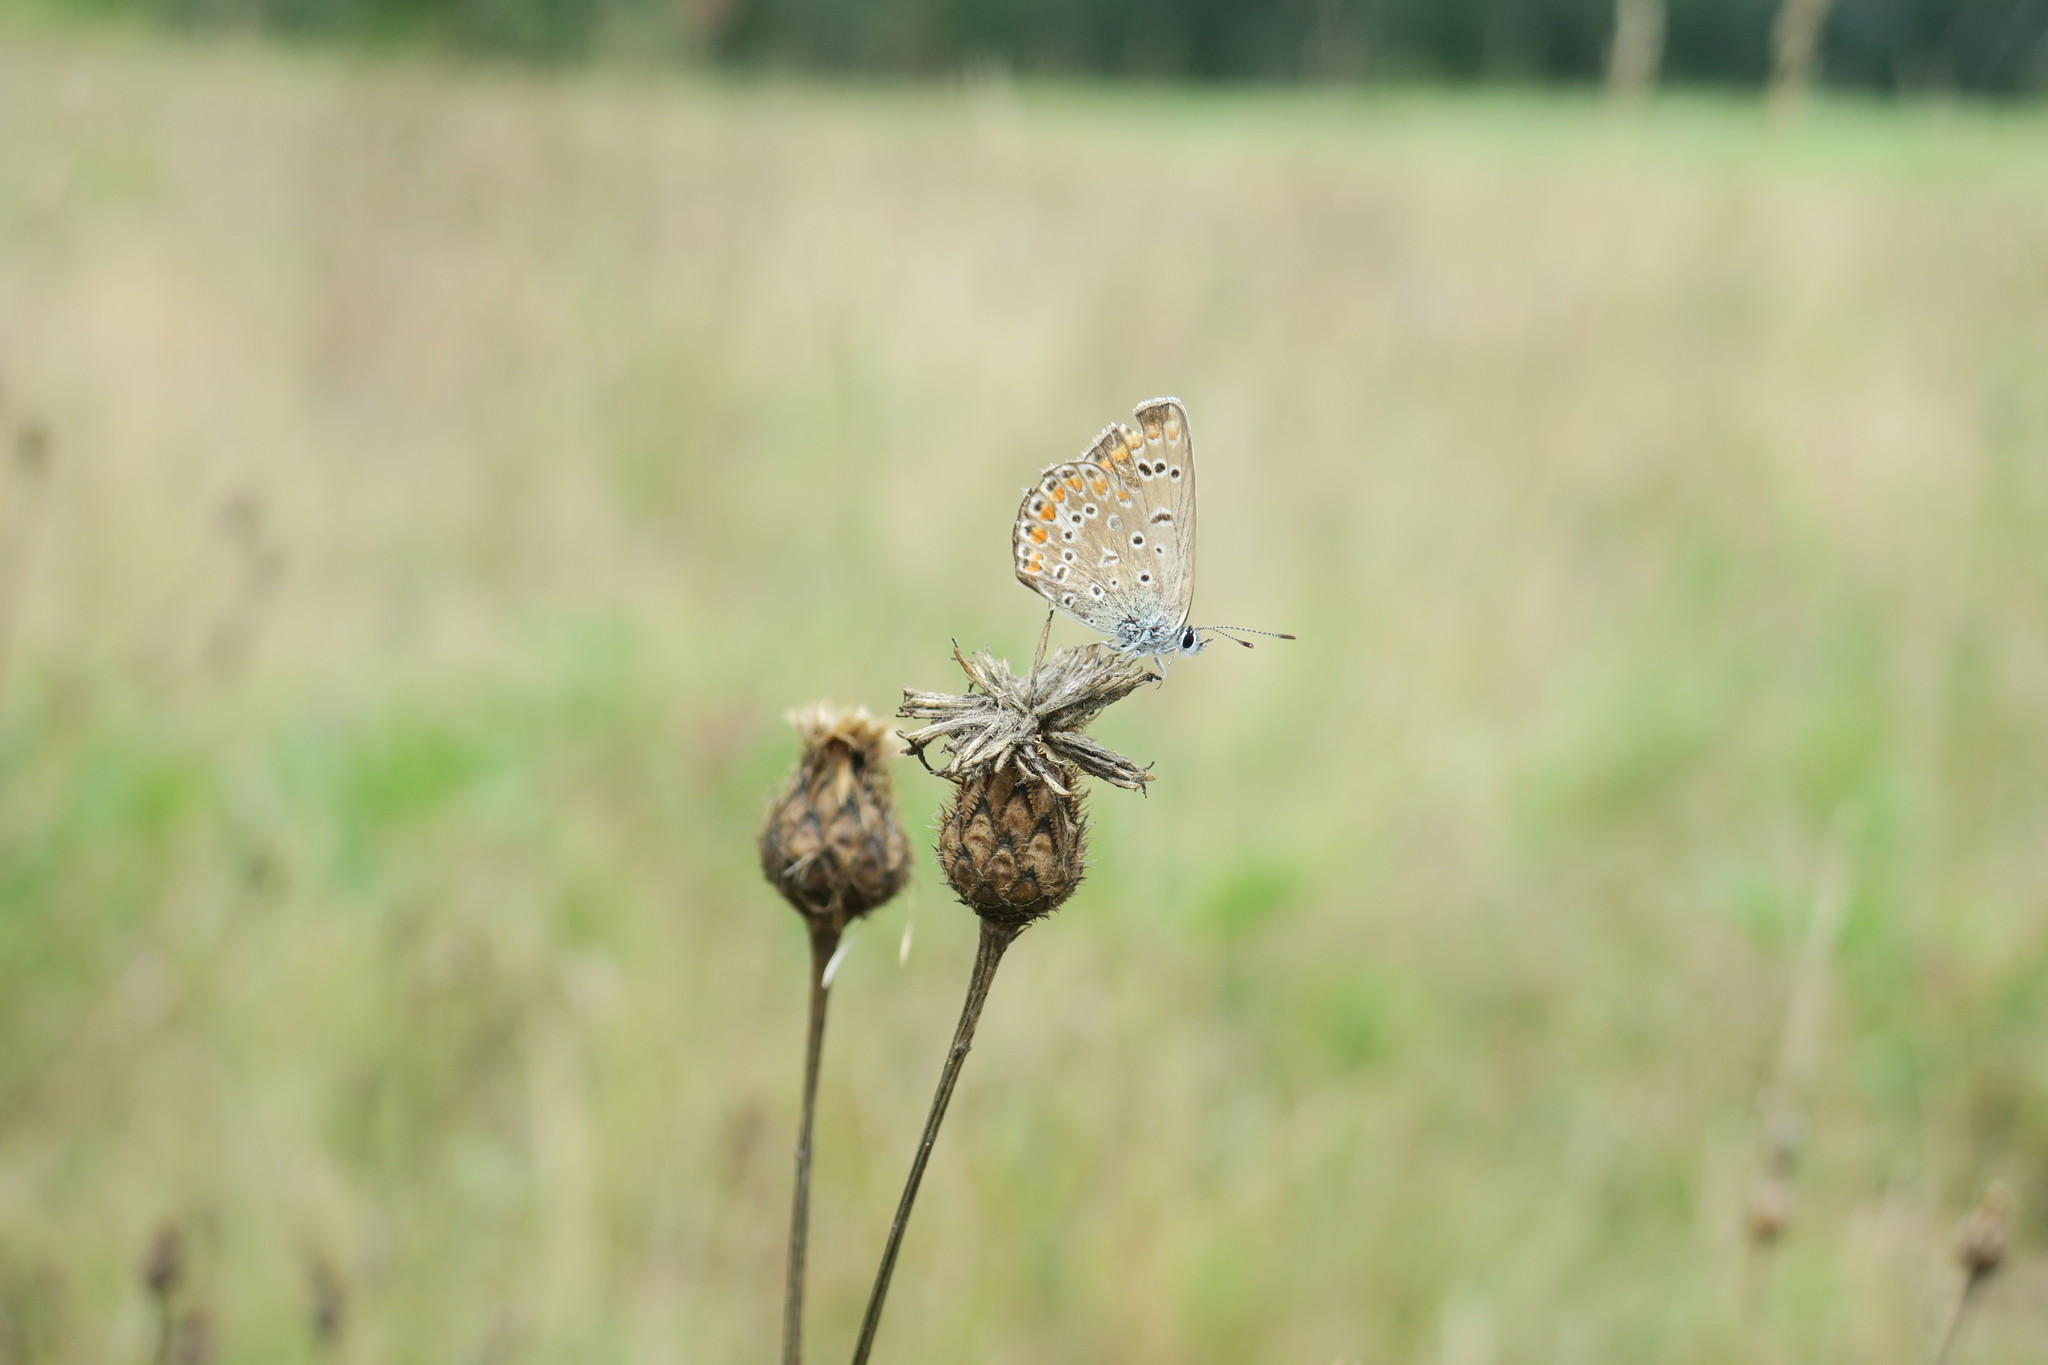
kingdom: Animalia
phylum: Arthropoda
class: Insecta
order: Lepidoptera
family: Lycaenidae
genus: Polyommatus
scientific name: Polyommatus icarus
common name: Common blue
